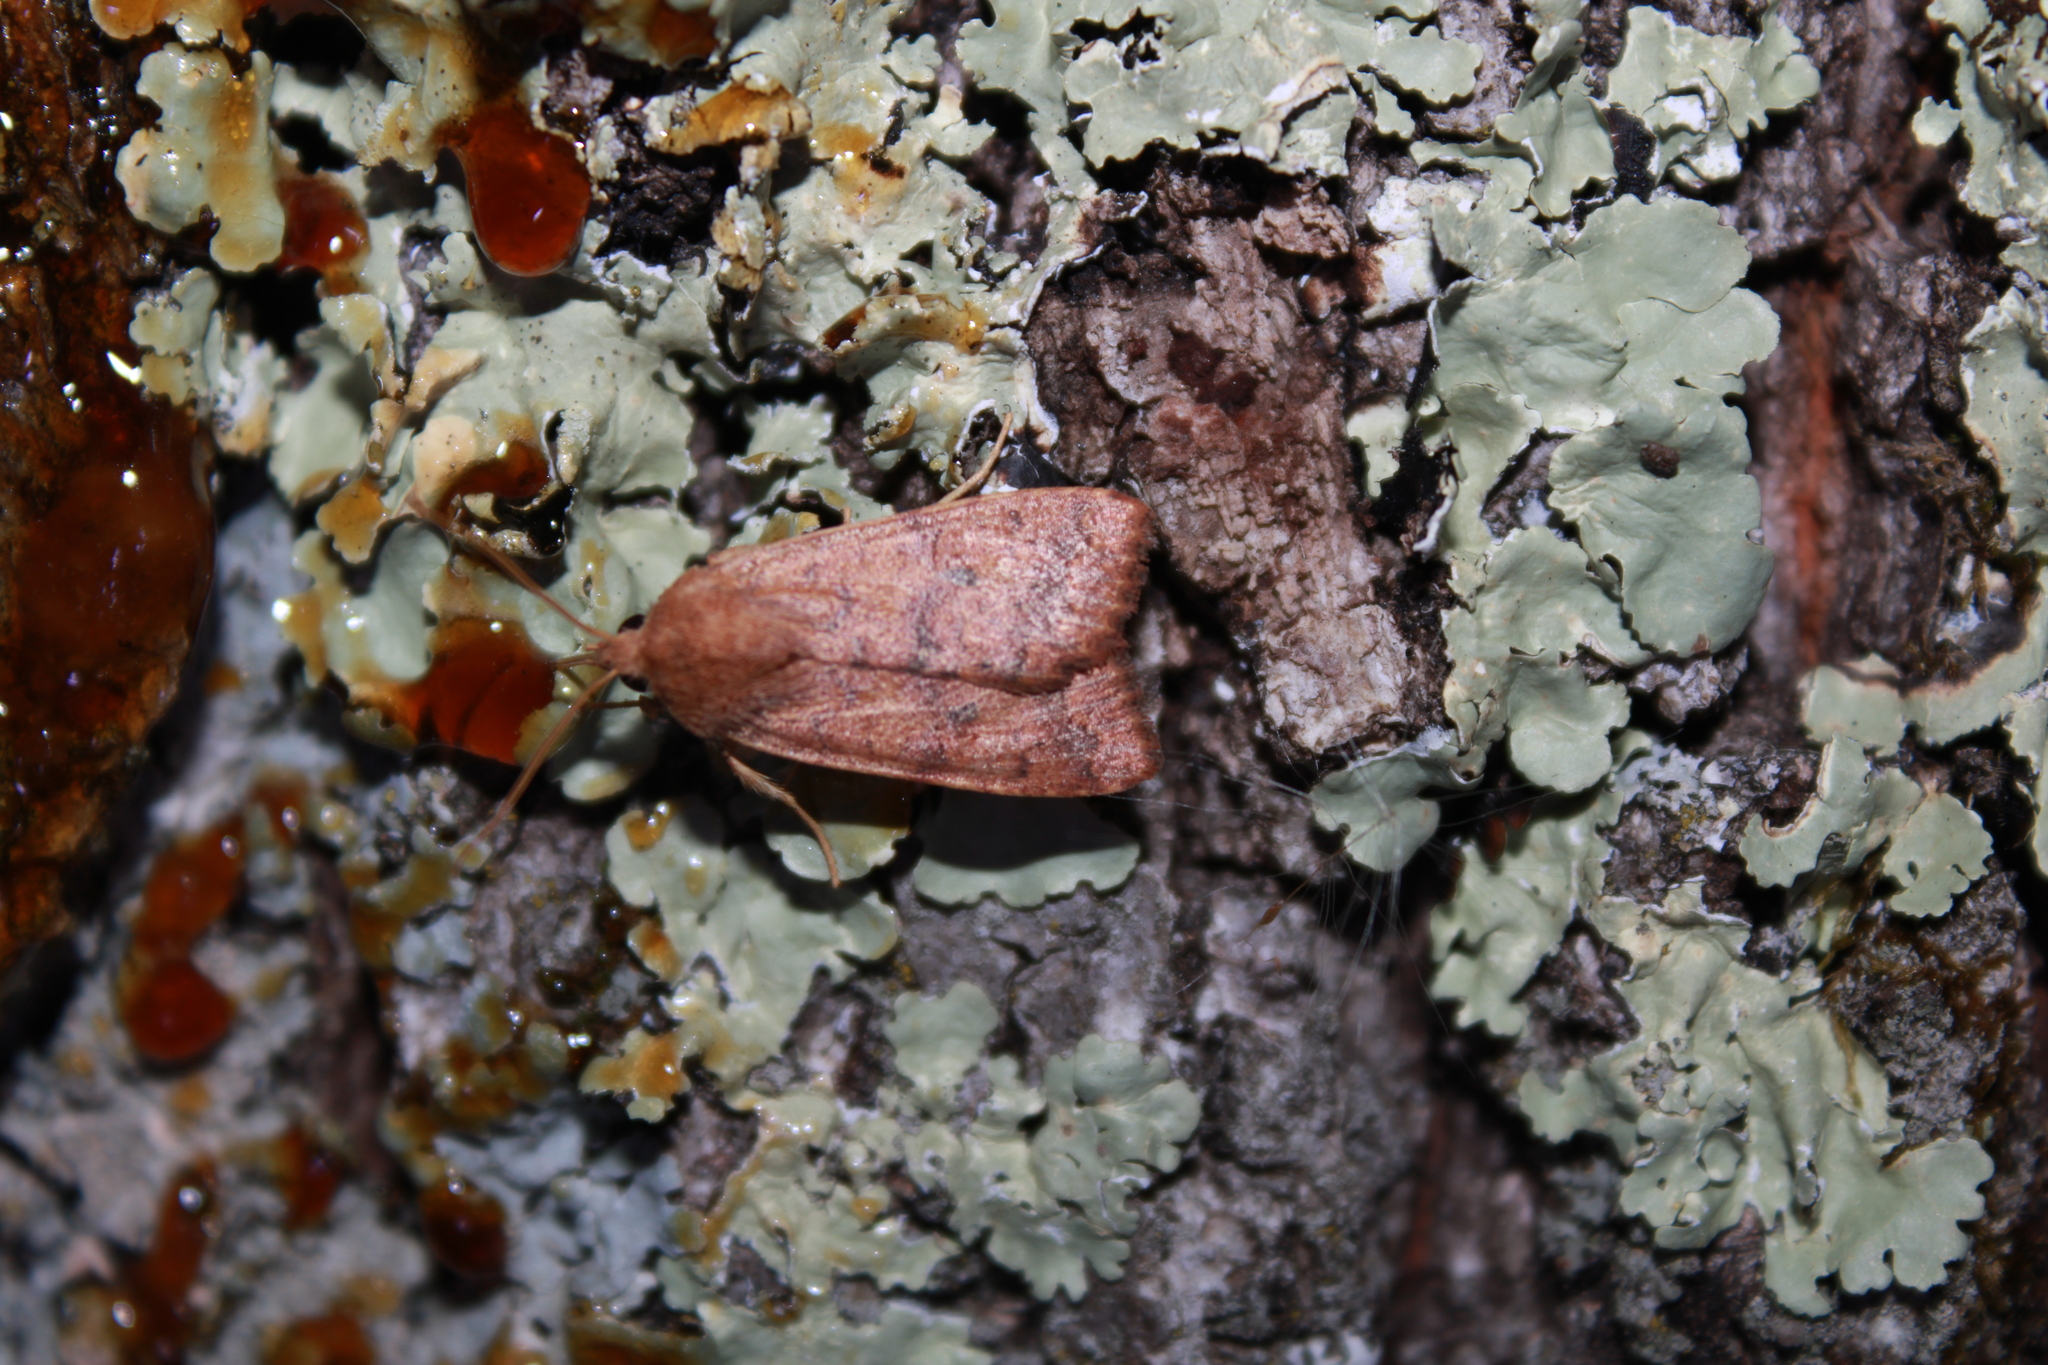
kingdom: Animalia
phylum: Arthropoda
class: Insecta
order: Lepidoptera
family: Noctuidae
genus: Agrochola
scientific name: Agrochola bicolorago
